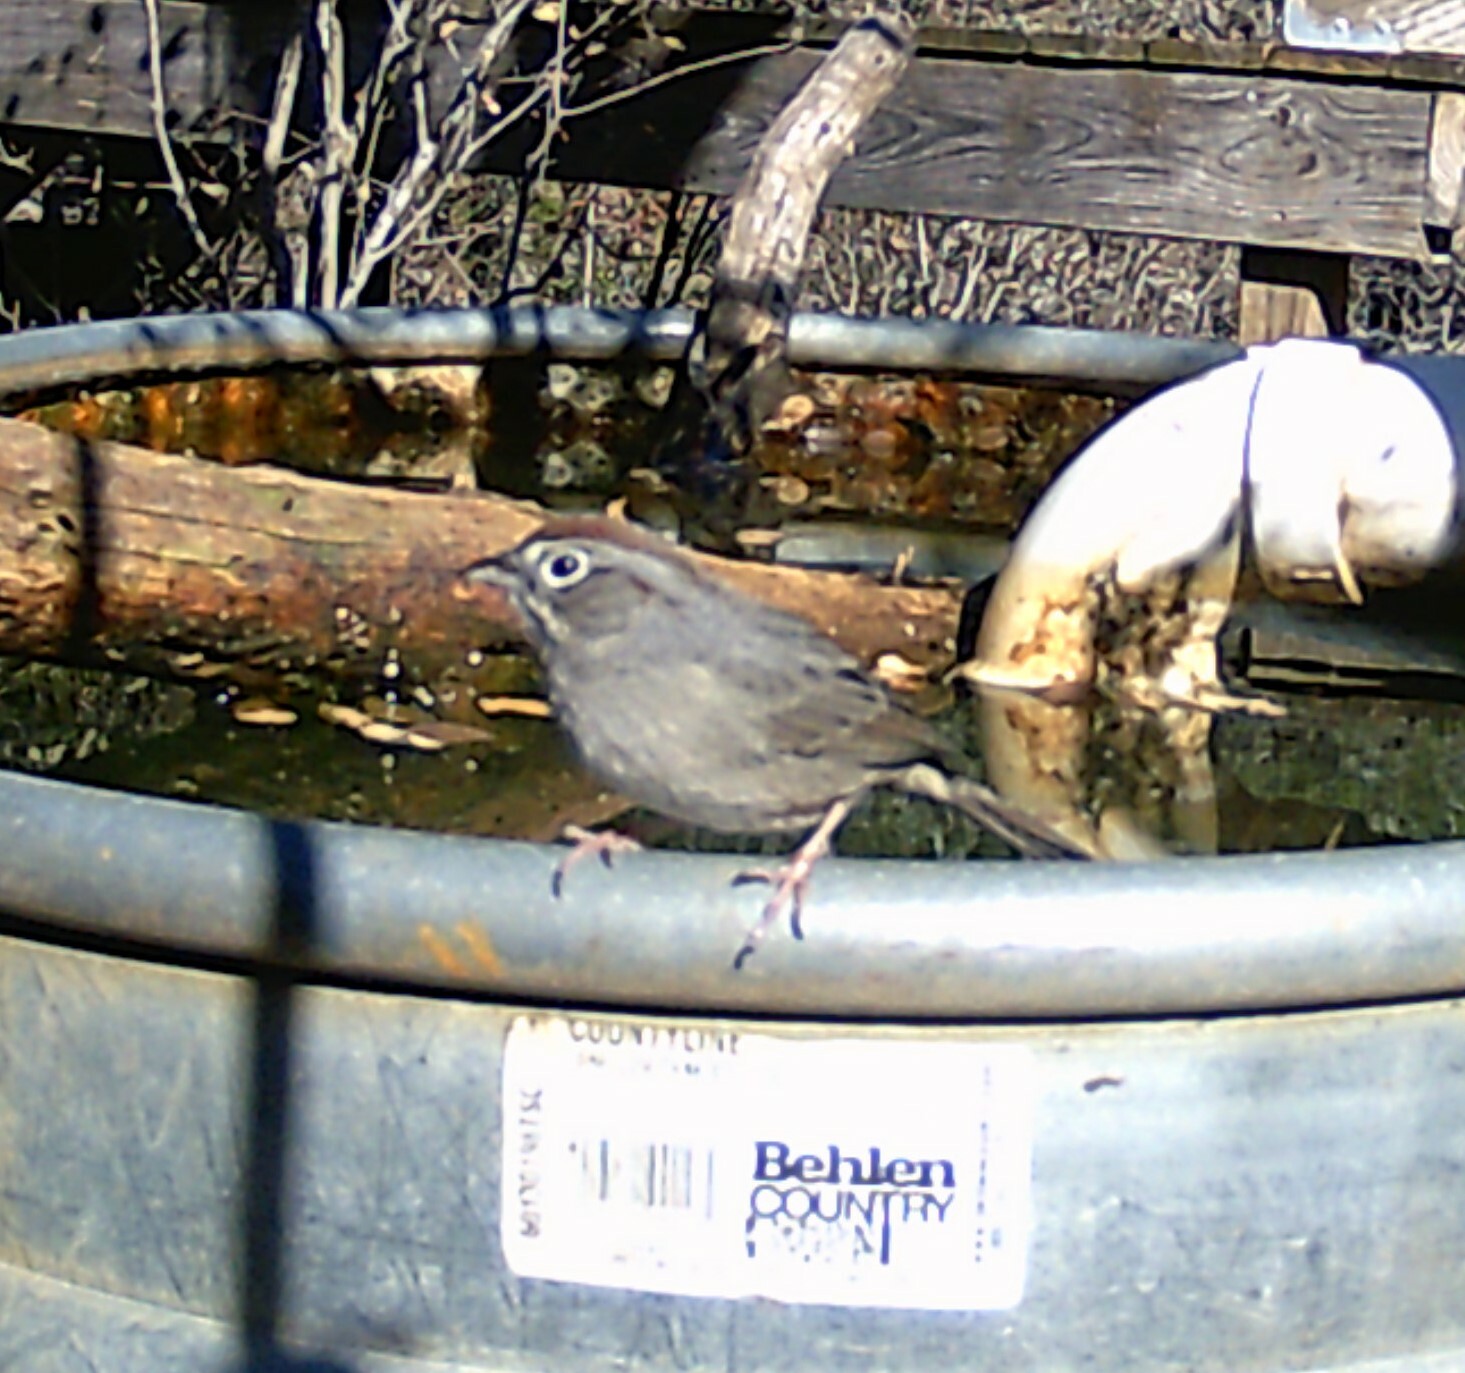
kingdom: Animalia
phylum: Chordata
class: Aves
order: Passeriformes
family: Passerellidae
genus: Aimophila
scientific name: Aimophila ruficeps
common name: Rufous-crowned sparrow
